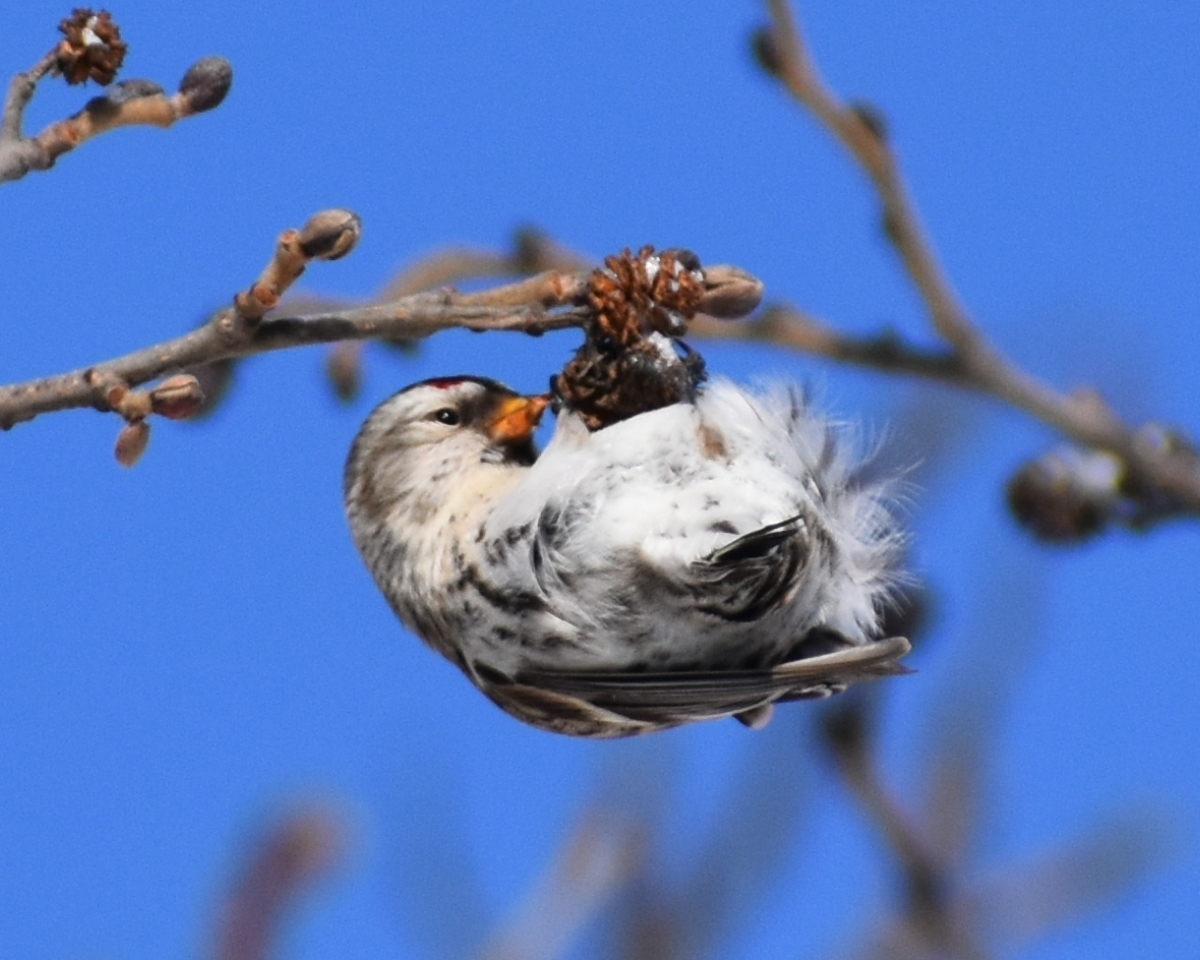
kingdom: Animalia
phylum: Chordata
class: Aves
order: Passeriformes
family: Fringillidae
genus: Acanthis
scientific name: Acanthis flammea
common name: Common redpoll
